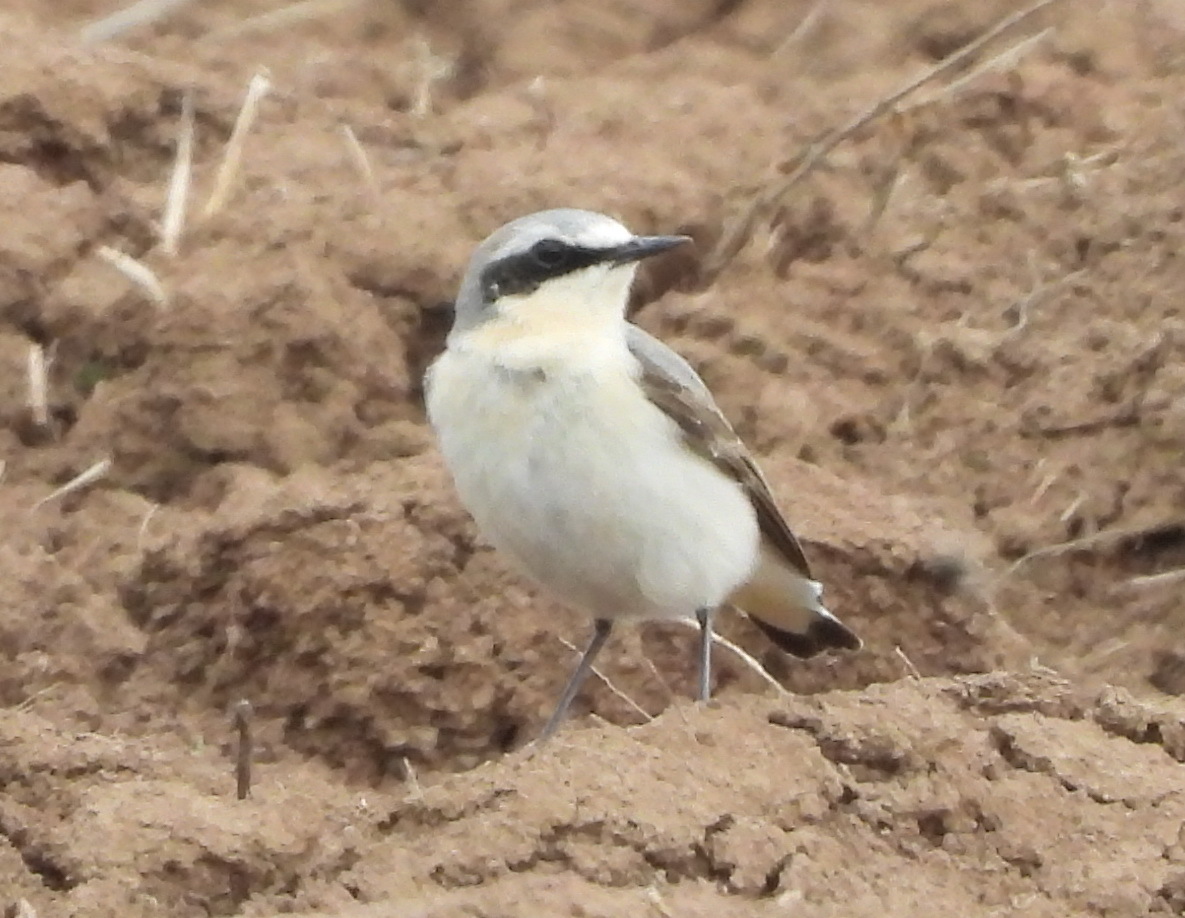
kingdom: Animalia
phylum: Chordata
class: Aves
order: Passeriformes
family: Muscicapidae
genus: Oenanthe
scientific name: Oenanthe oenanthe
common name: Northern wheatear
